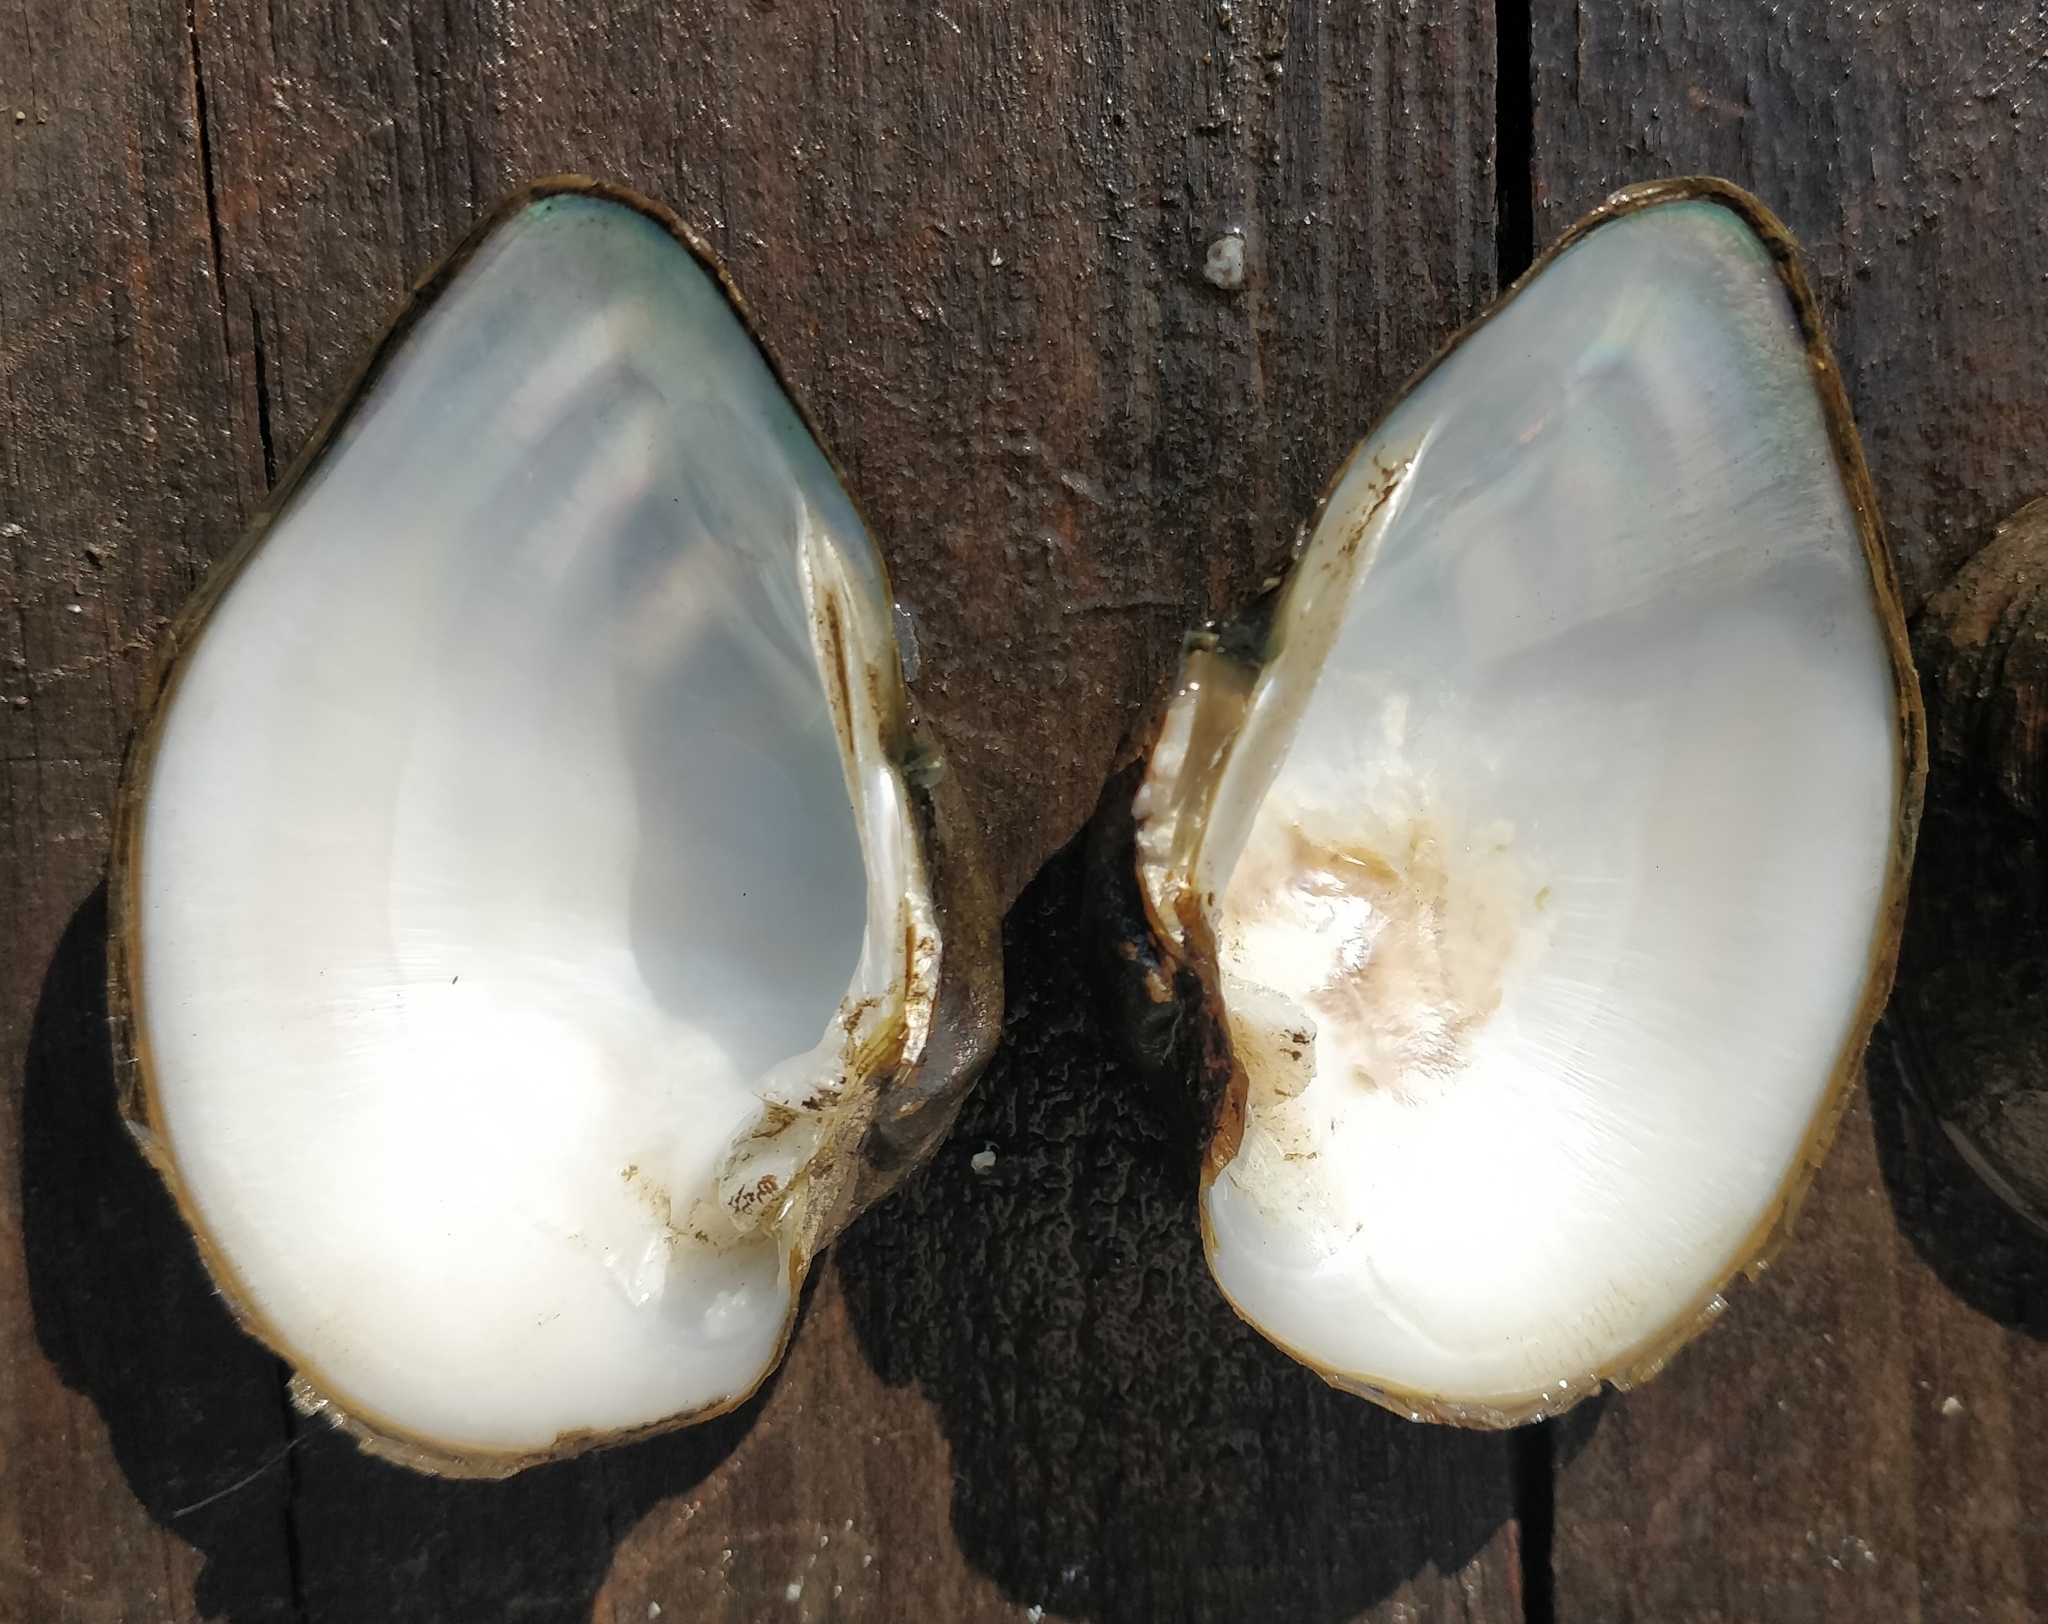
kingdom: Animalia
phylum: Mollusca
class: Bivalvia
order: Unionida
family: Unionidae
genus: Truncilla
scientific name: Truncilla truncata
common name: Deertoe
